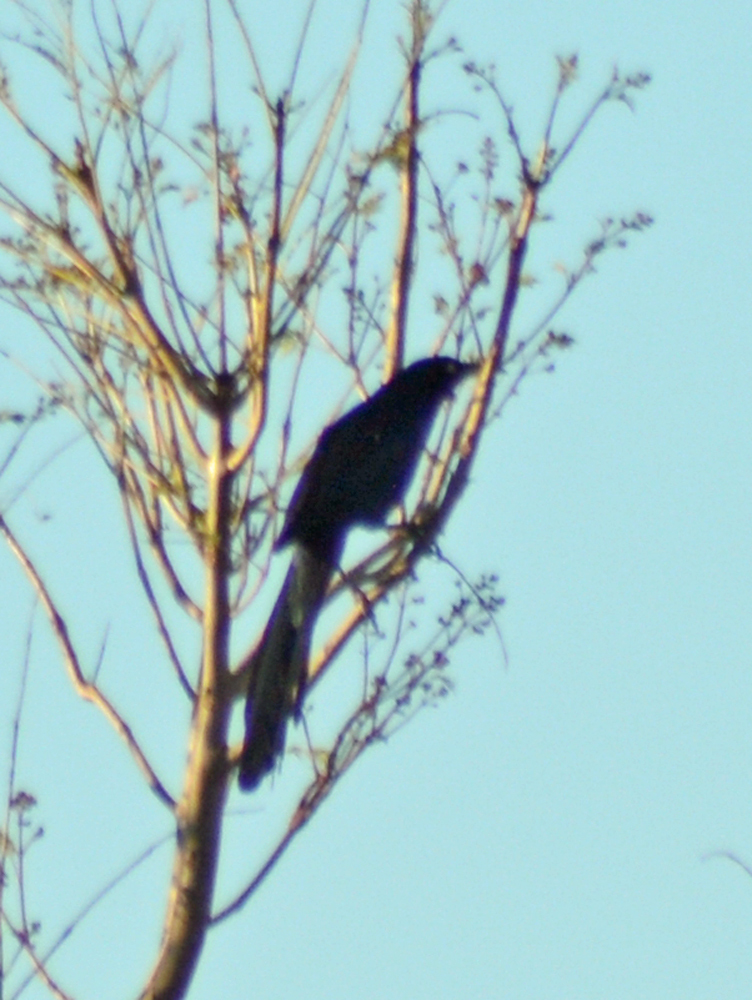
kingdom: Animalia
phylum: Chordata
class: Aves
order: Passeriformes
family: Icteridae
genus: Quiscalus
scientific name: Quiscalus mexicanus
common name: Great-tailed grackle
